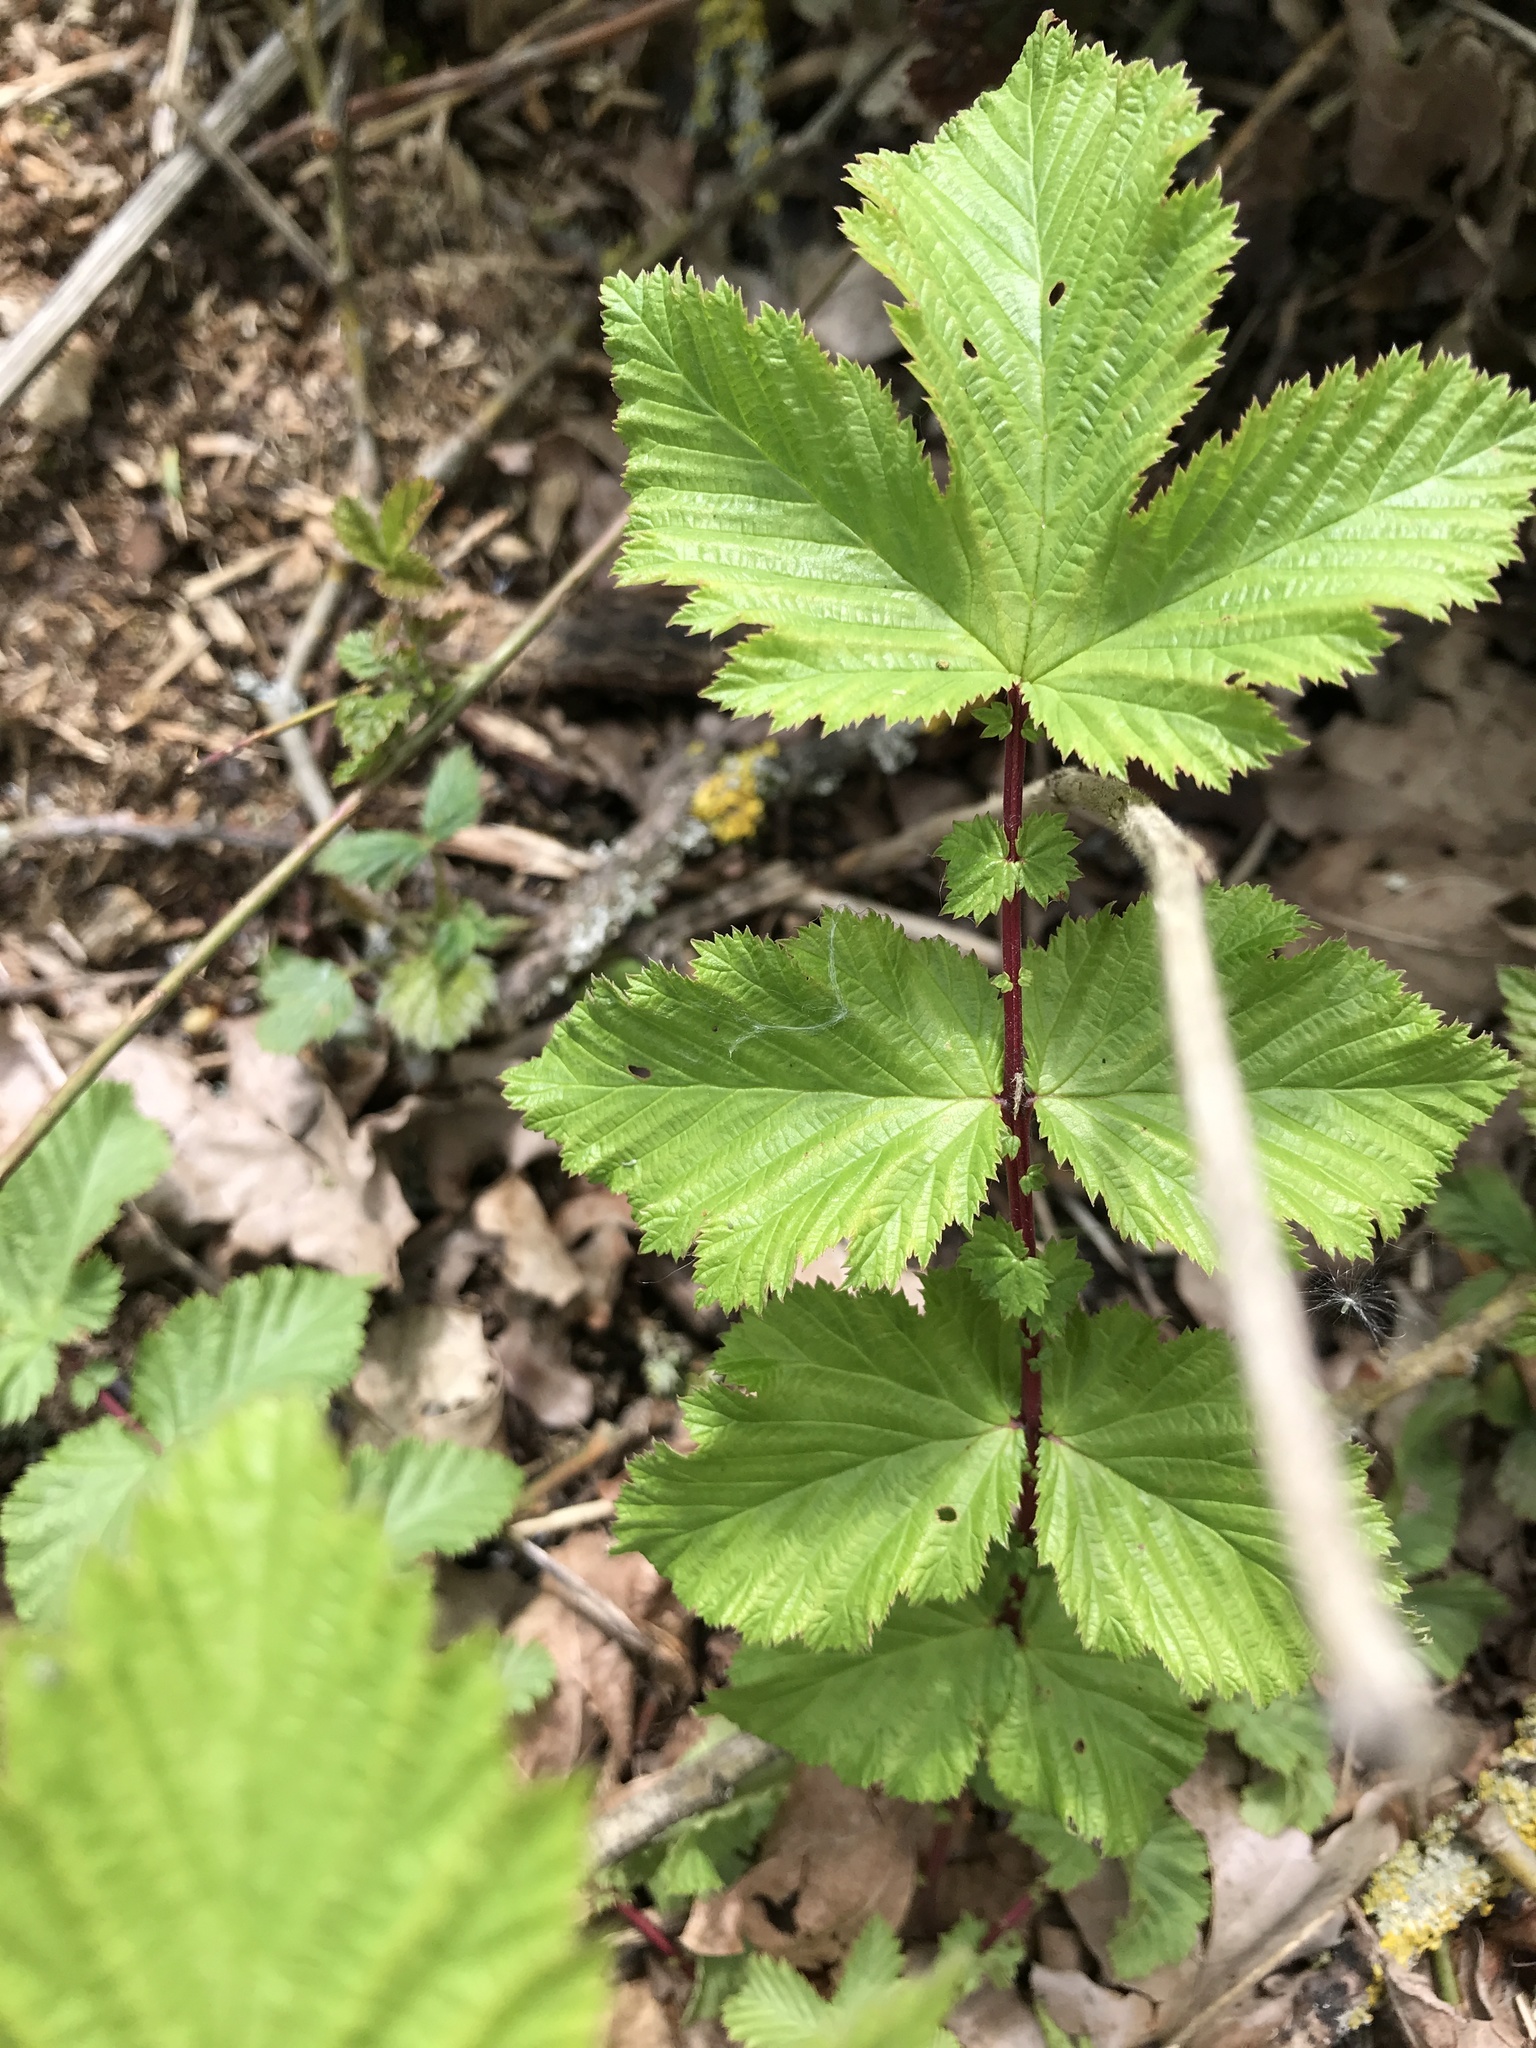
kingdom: Plantae
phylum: Tracheophyta
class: Magnoliopsida
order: Rosales
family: Rosaceae
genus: Filipendula
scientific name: Filipendula ulmaria
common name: Meadowsweet
